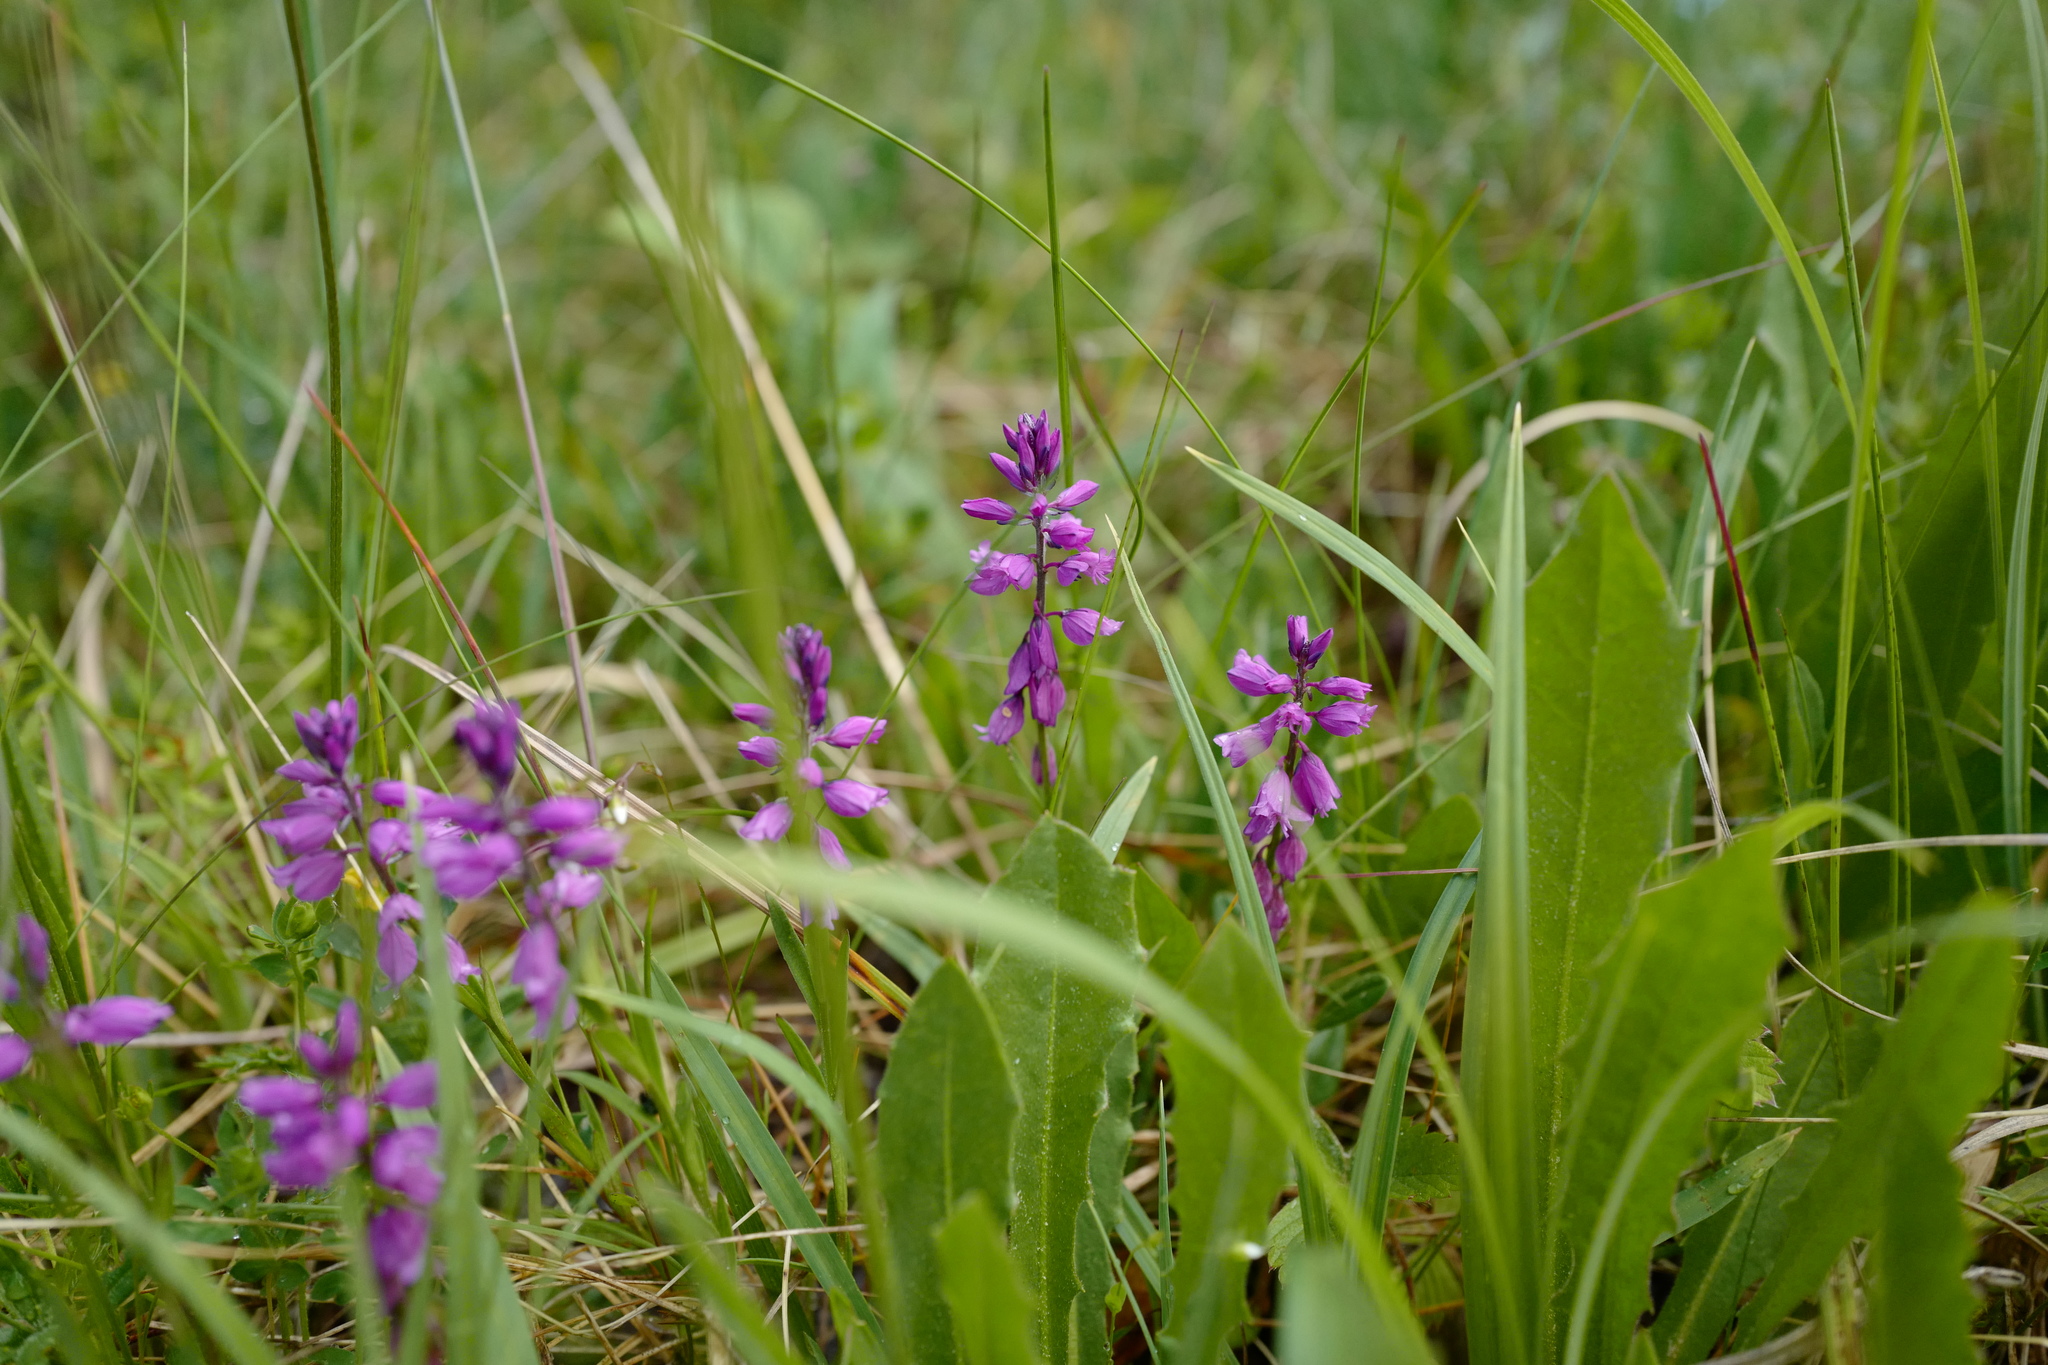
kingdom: Plantae
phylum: Tracheophyta
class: Magnoliopsida
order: Fabales
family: Polygalaceae
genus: Polygala
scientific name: Polygala comosa
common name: Tufted milkwort
